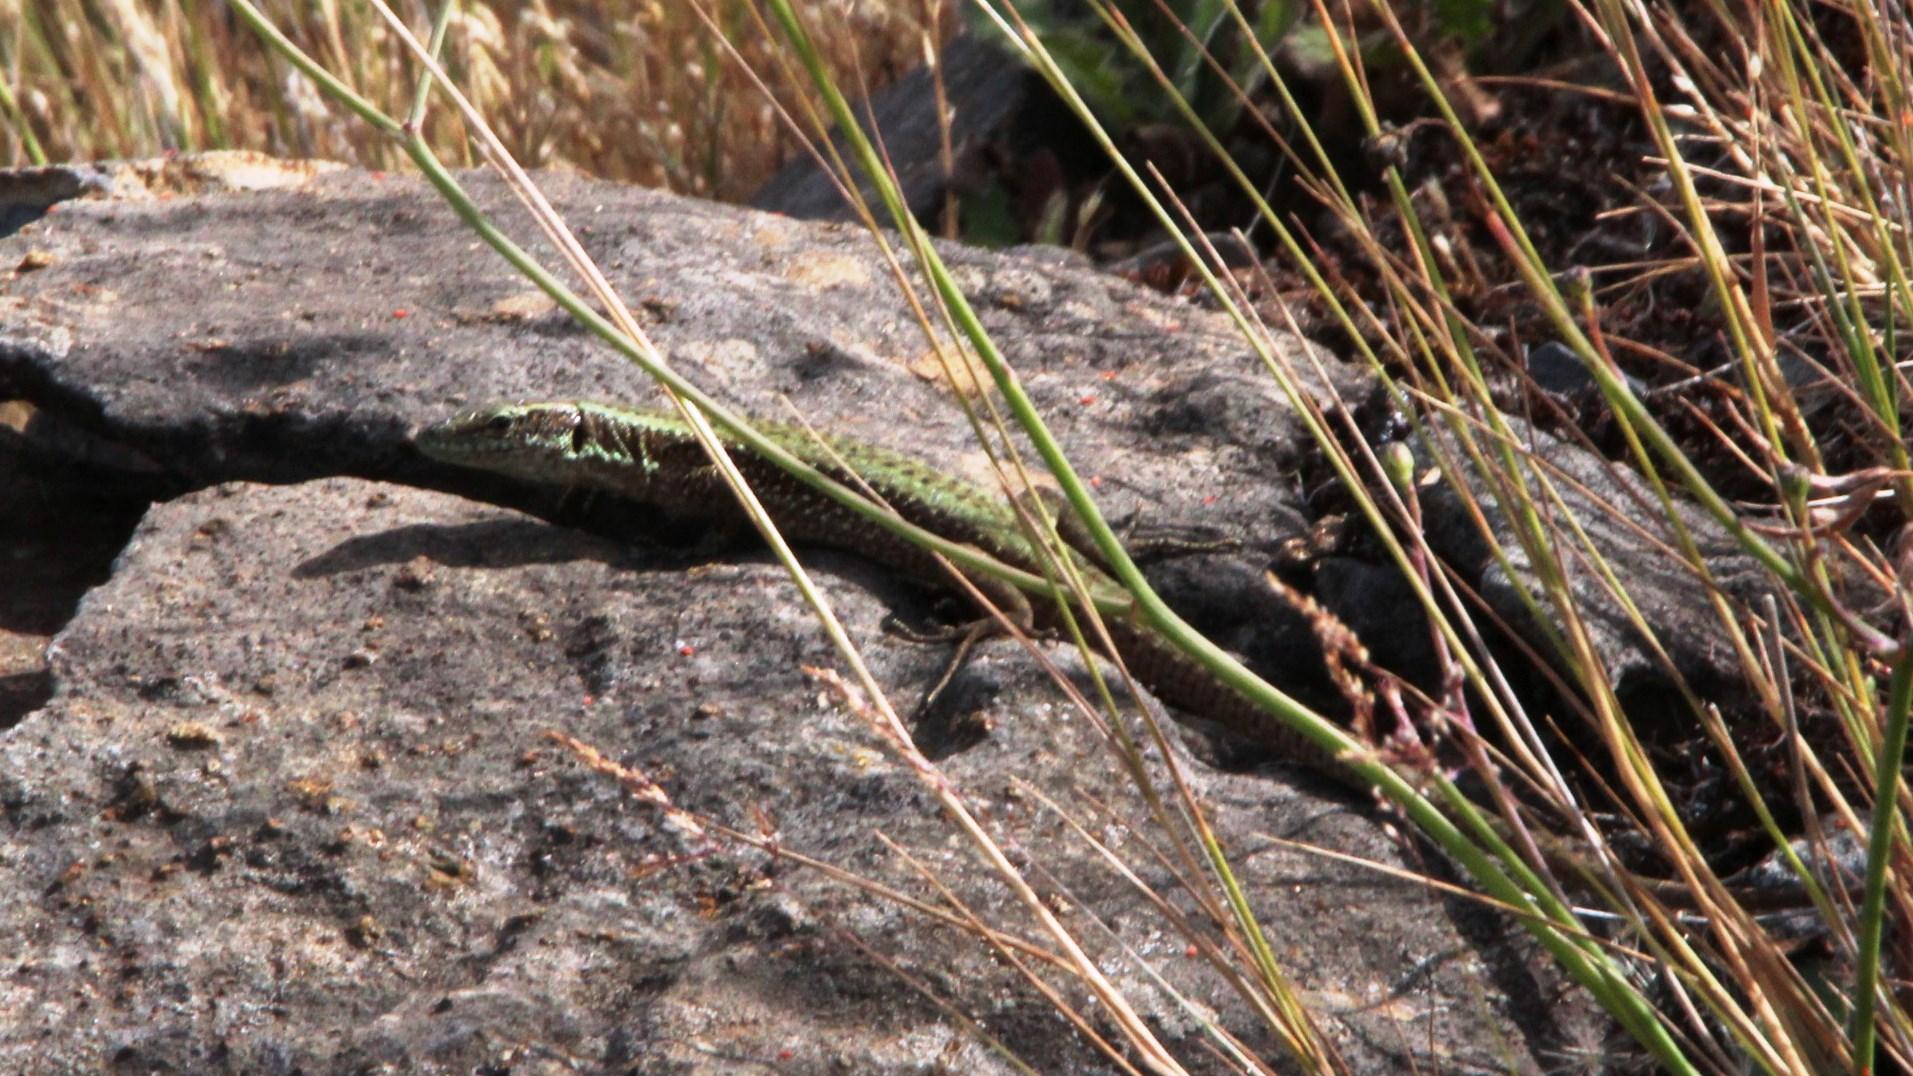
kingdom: Animalia
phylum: Chordata
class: Squamata
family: Lacertidae
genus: Teira
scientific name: Teira dugesii
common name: Madeira lizard
